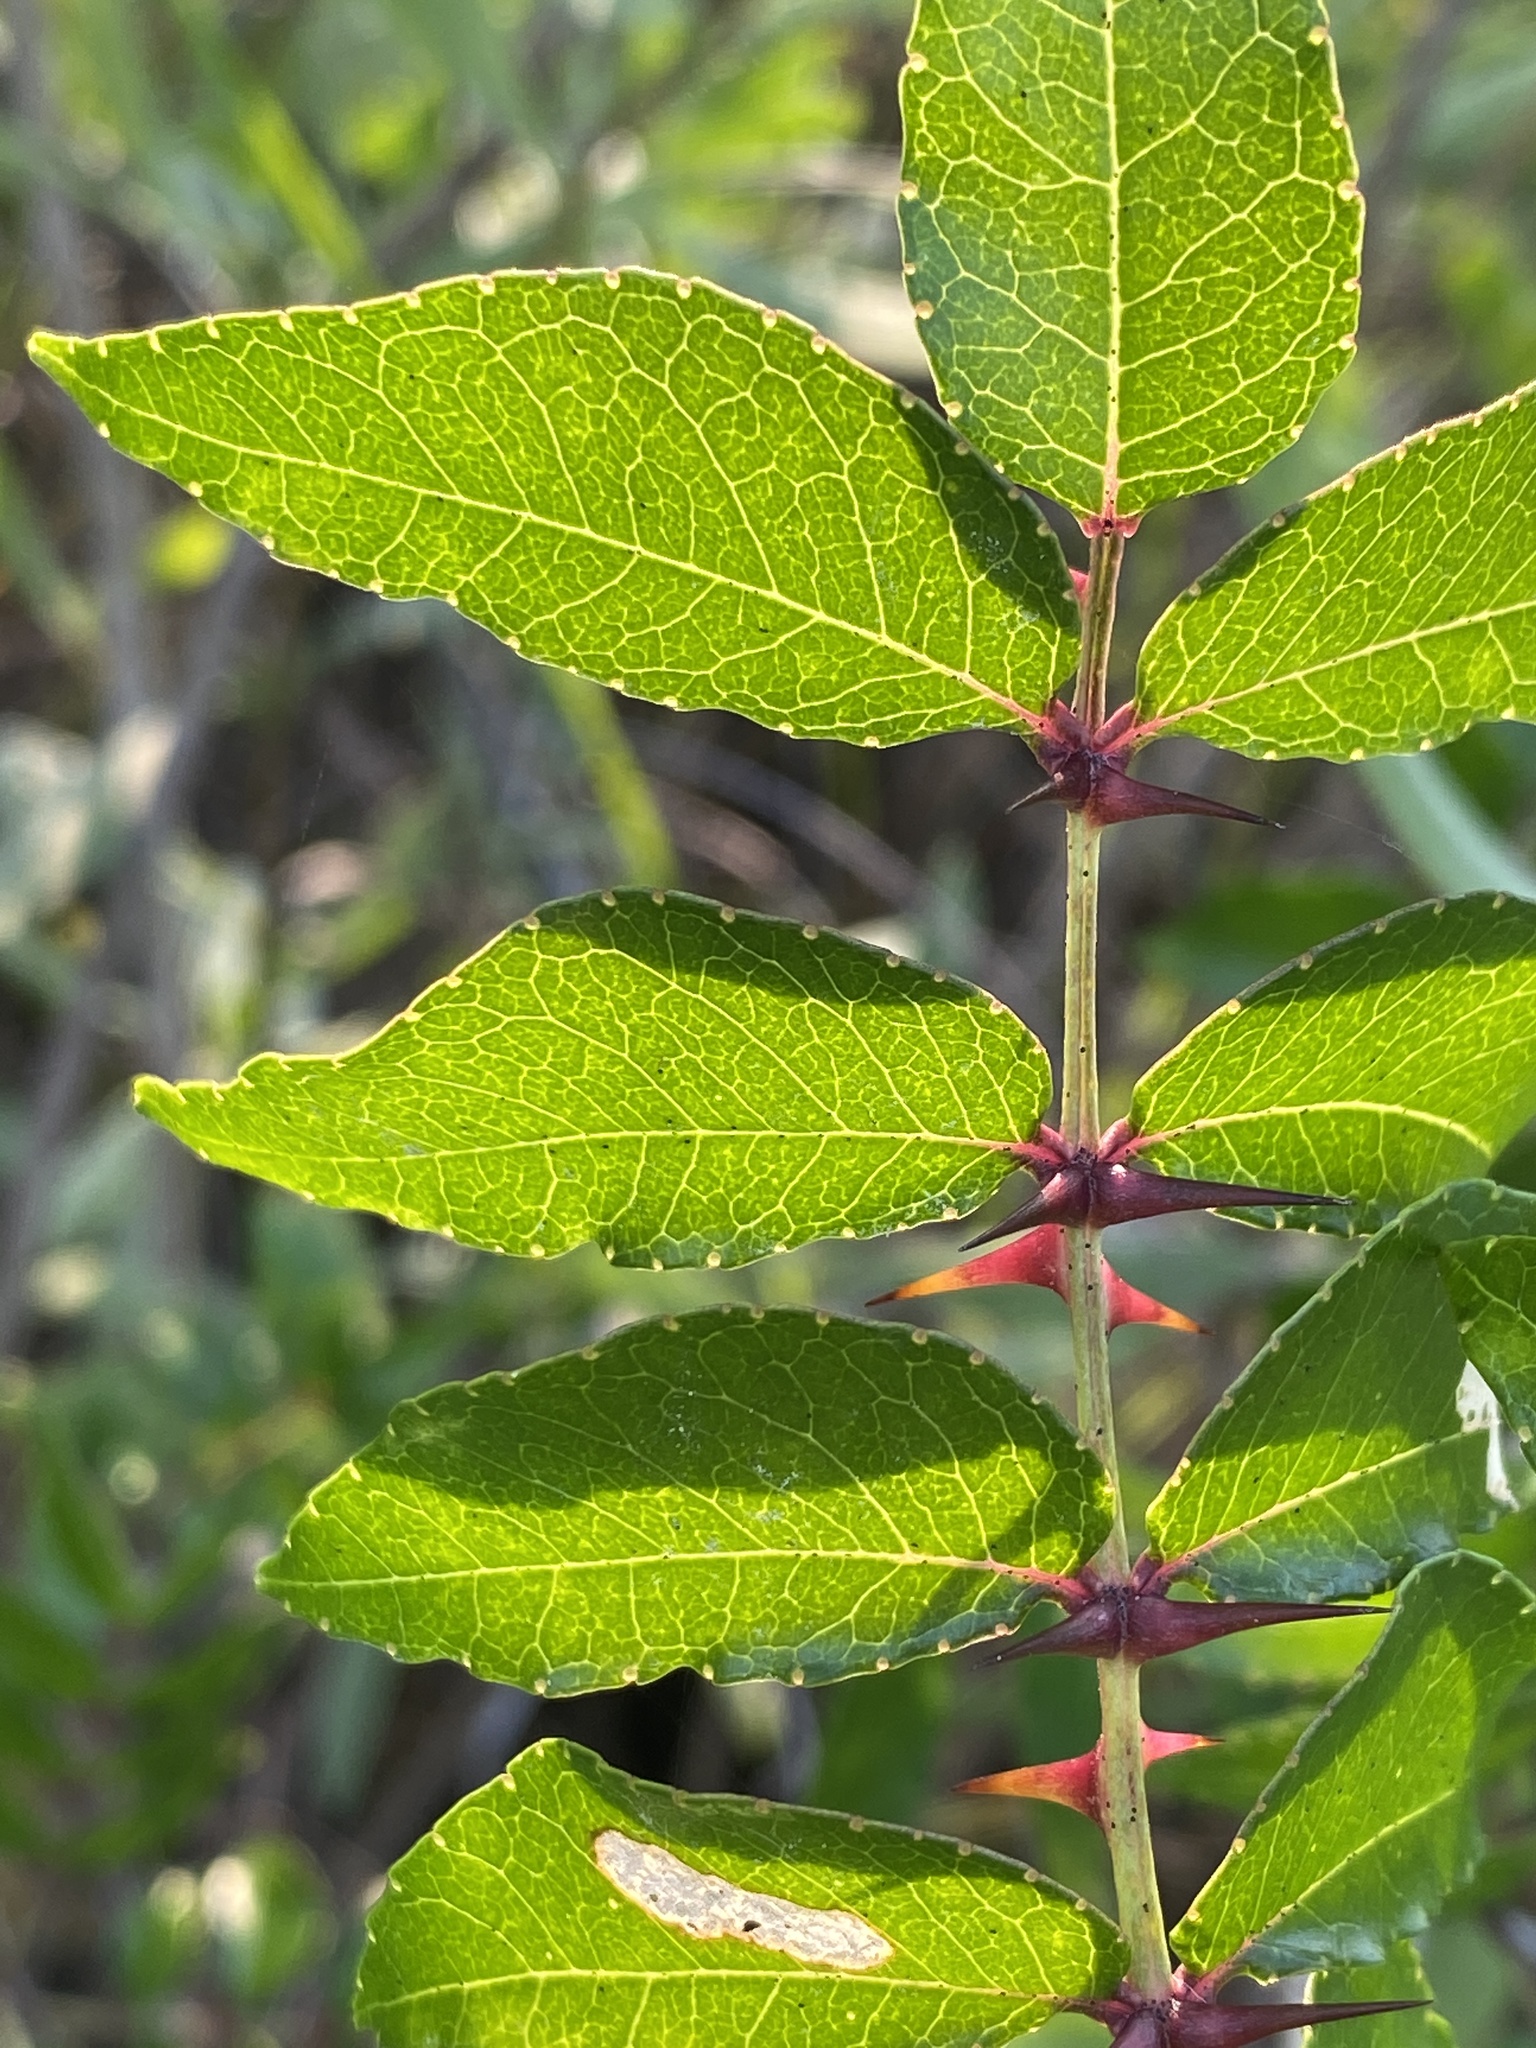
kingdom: Plantae
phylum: Tracheophyta
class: Magnoliopsida
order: Sapindales
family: Rutaceae
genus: Zanthoxylum
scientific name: Zanthoxylum clava-herculis
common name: Hercules'-club
